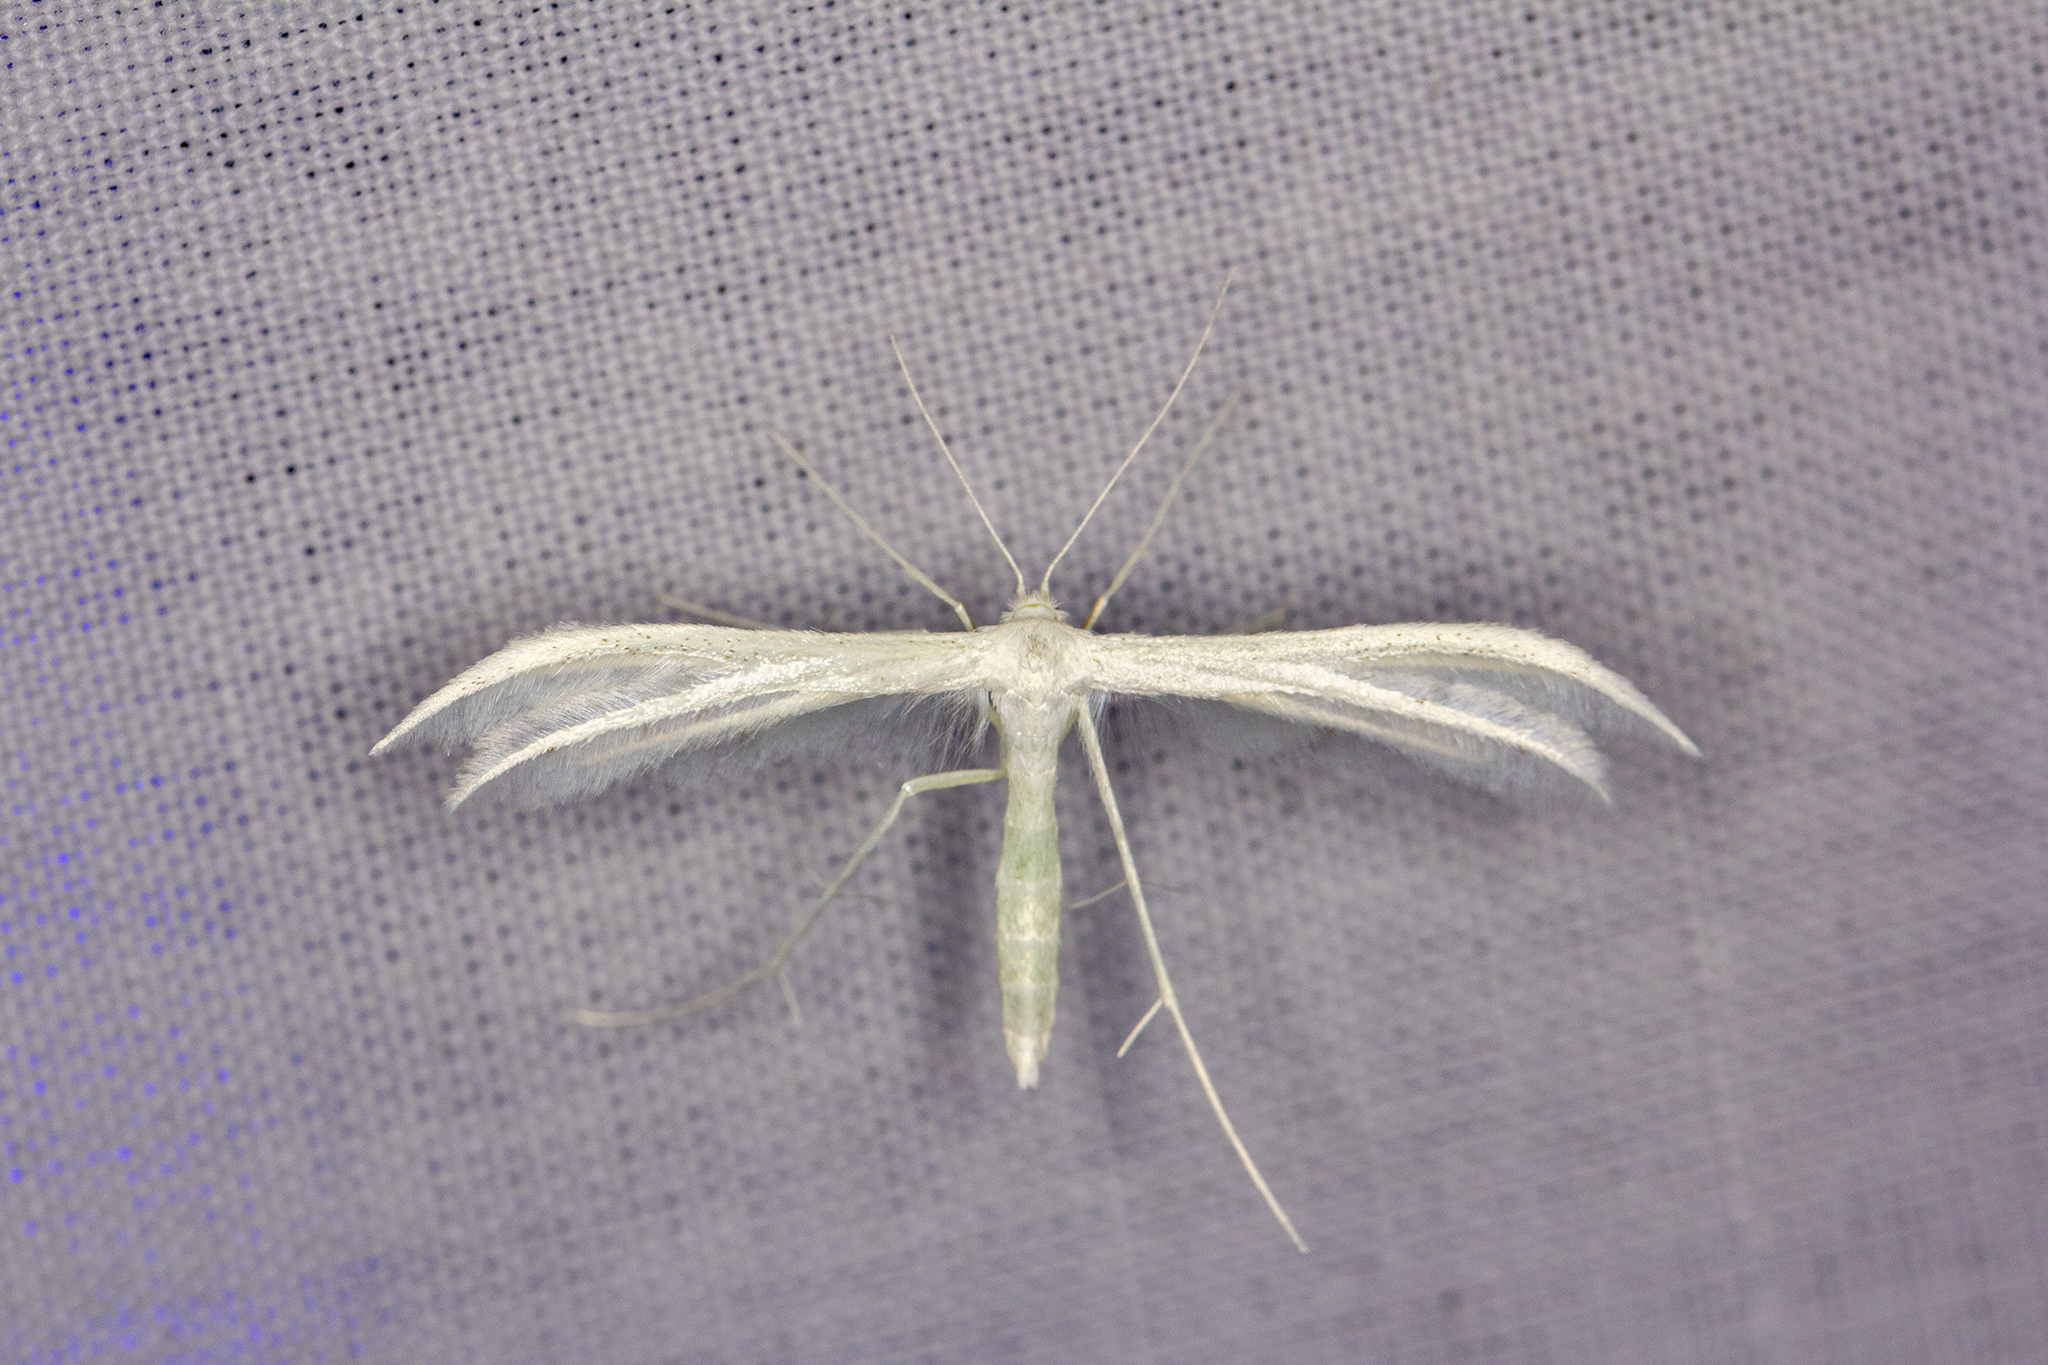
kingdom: Animalia
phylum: Arthropoda
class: Insecta
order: Lepidoptera
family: Pterophoridae
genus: Pterophorus
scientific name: Pterophorus pentadactyla
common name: White plume moth
